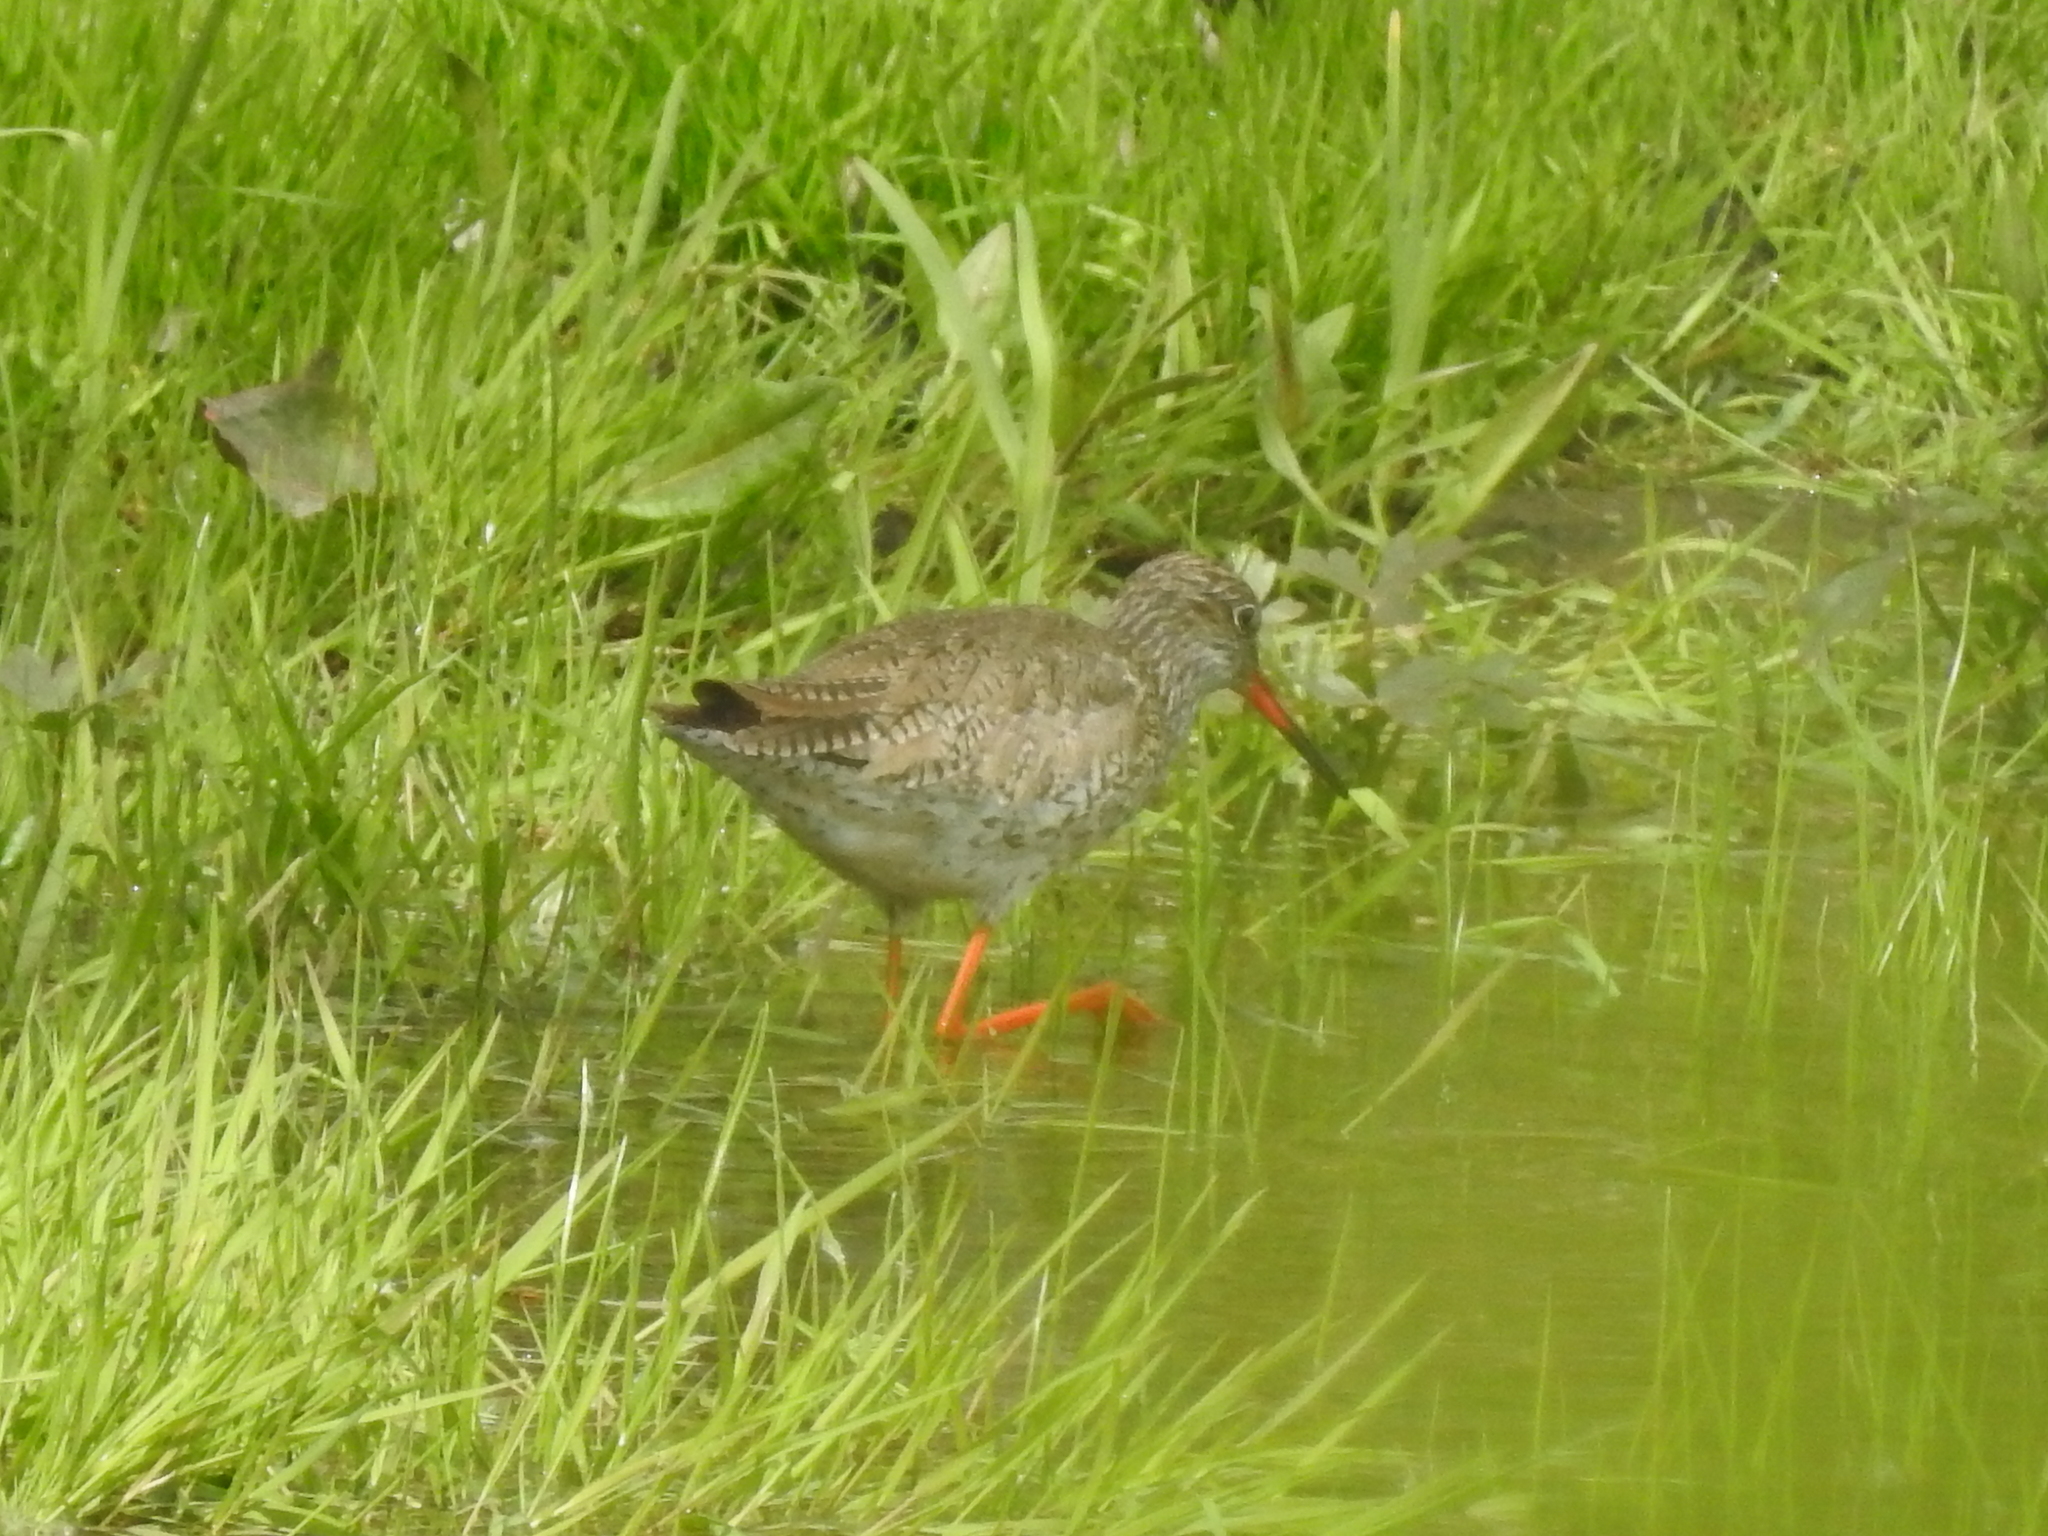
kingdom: Animalia
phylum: Chordata
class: Aves
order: Charadriiformes
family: Scolopacidae
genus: Tringa
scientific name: Tringa totanus
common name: Common redshank
